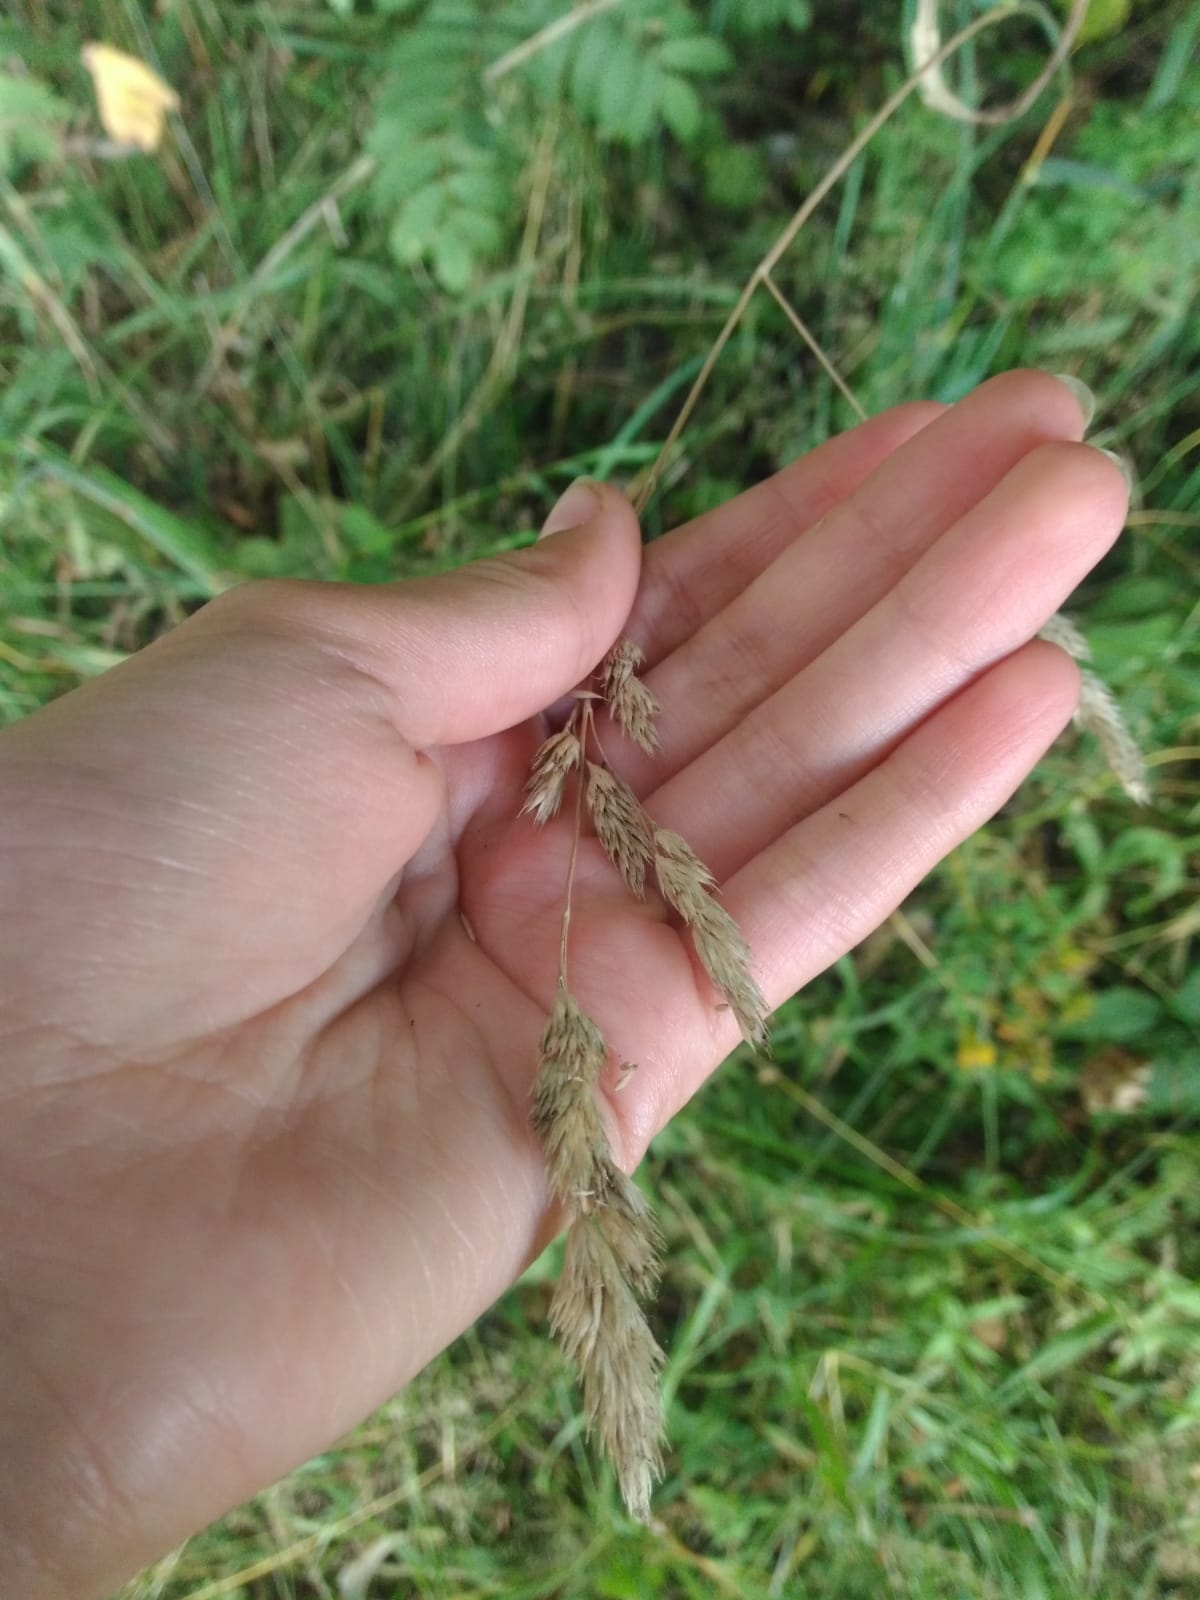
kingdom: Plantae
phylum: Tracheophyta
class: Liliopsida
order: Poales
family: Poaceae
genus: Dactylis
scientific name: Dactylis glomerata
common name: Orchardgrass
